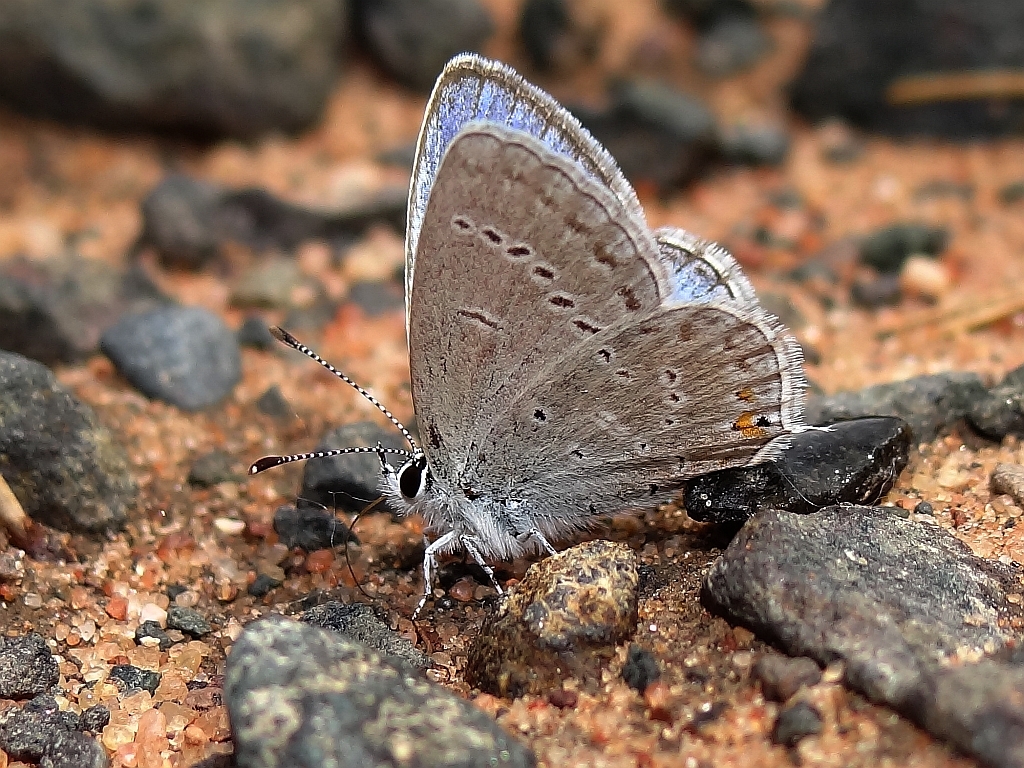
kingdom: Animalia
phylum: Arthropoda
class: Insecta
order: Lepidoptera
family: Lycaenidae
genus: Elkalyce
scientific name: Elkalyce amyntula
